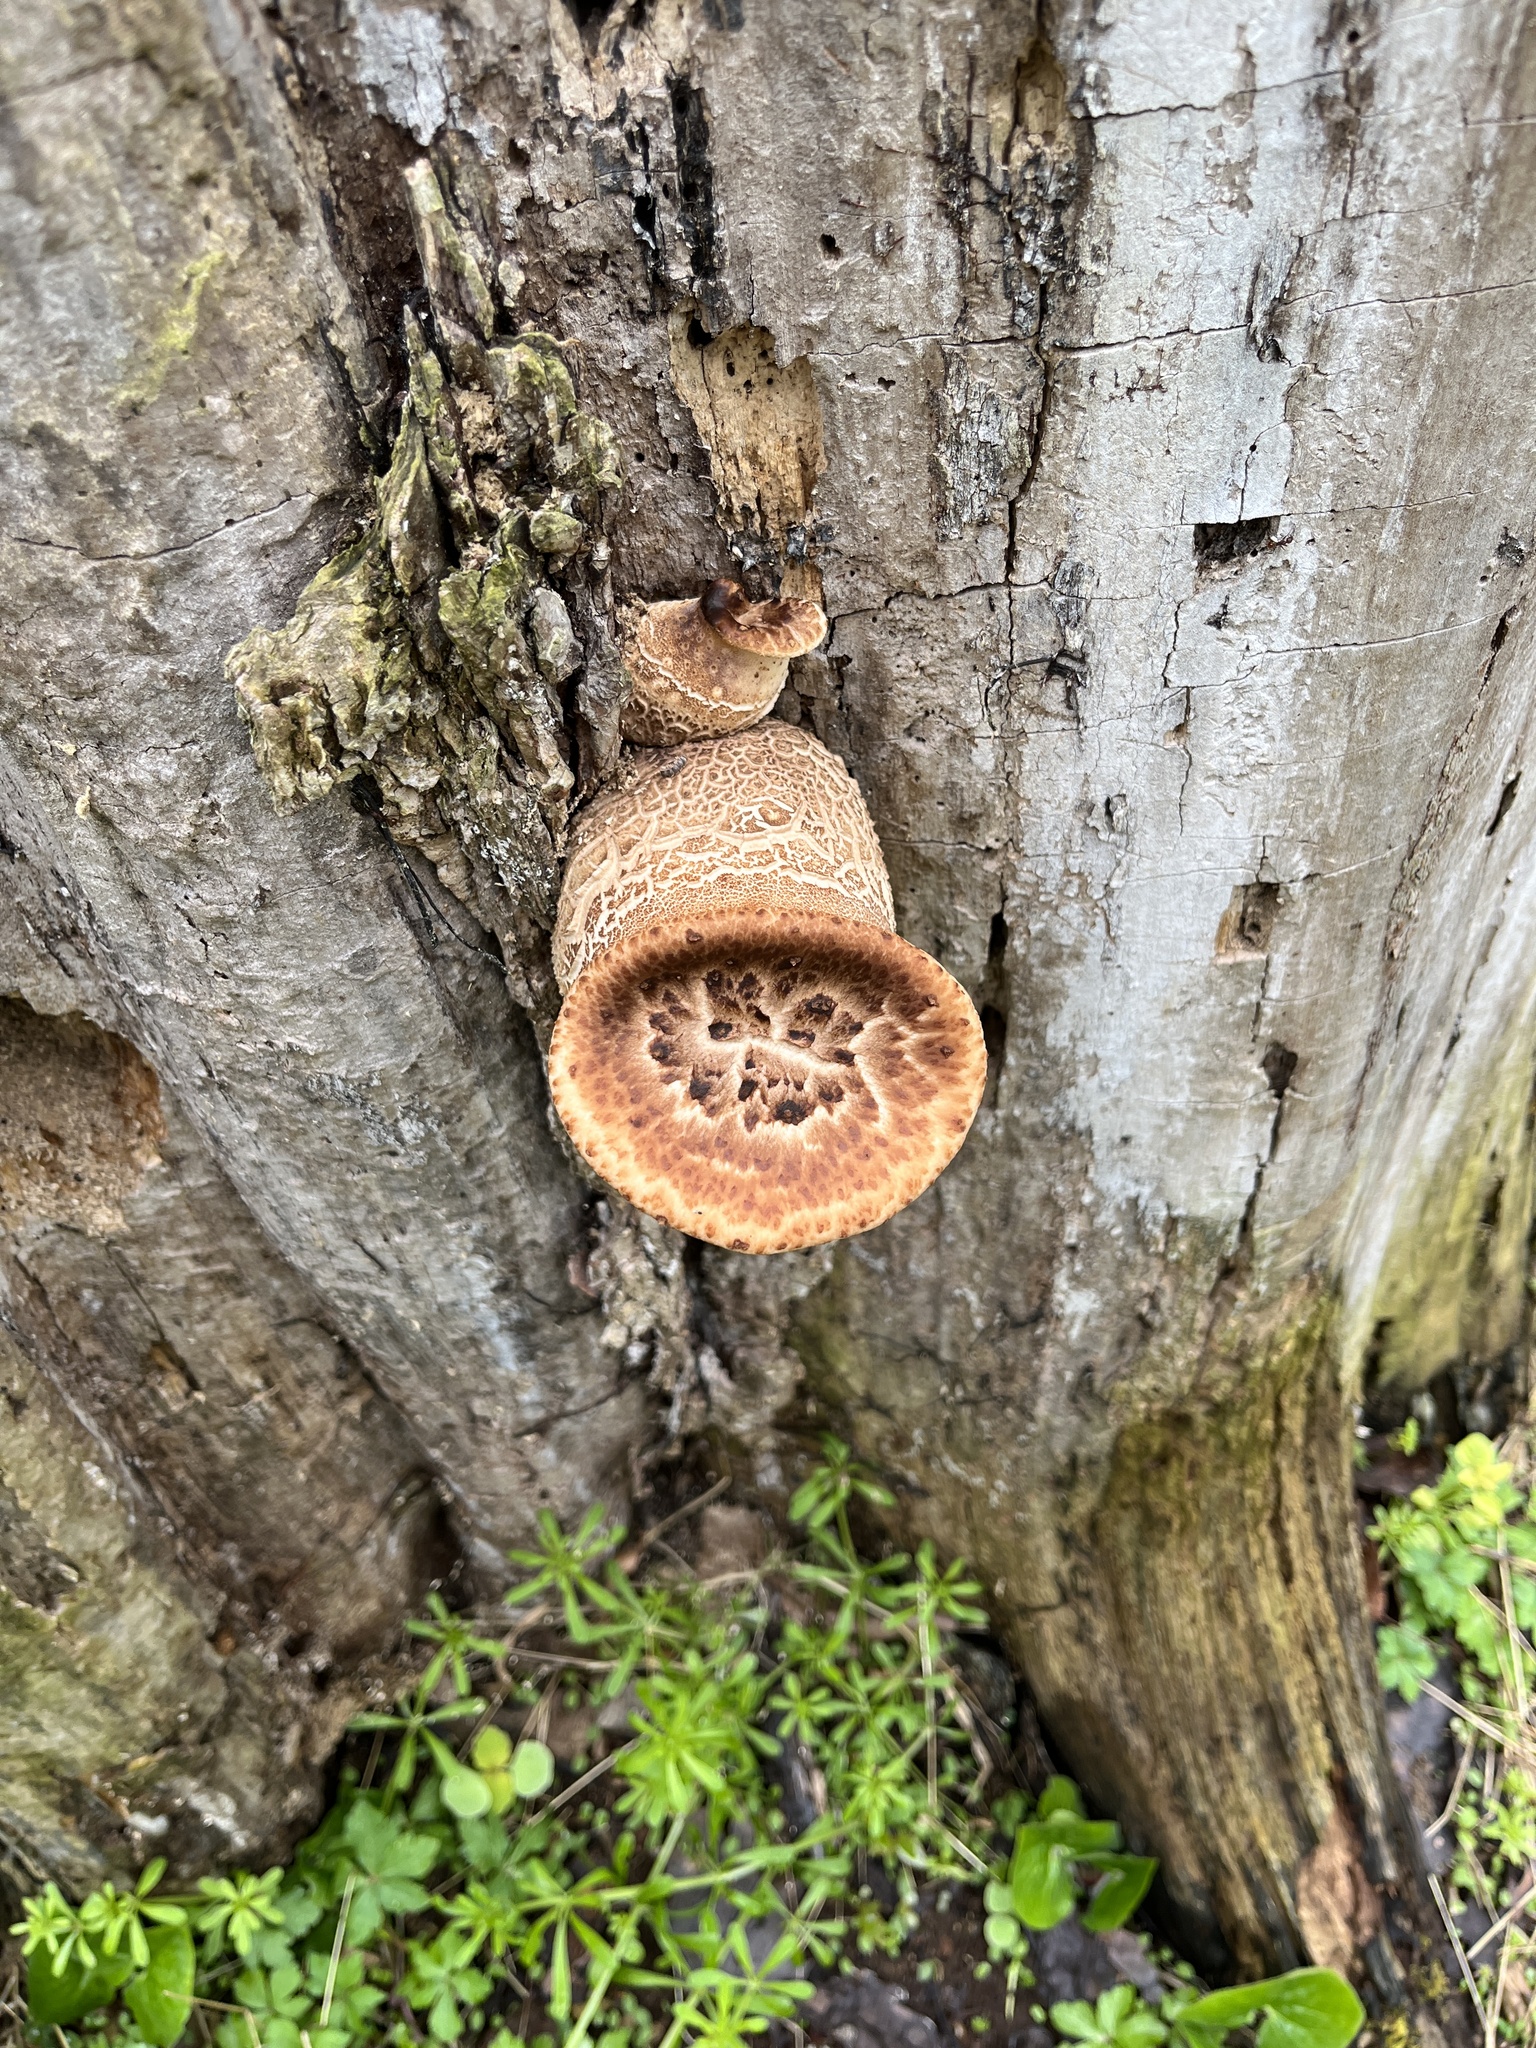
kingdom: Fungi
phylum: Basidiomycota
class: Agaricomycetes
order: Polyporales
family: Polyporaceae
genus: Cerioporus
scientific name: Cerioporus squamosus
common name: Dryad's saddle
